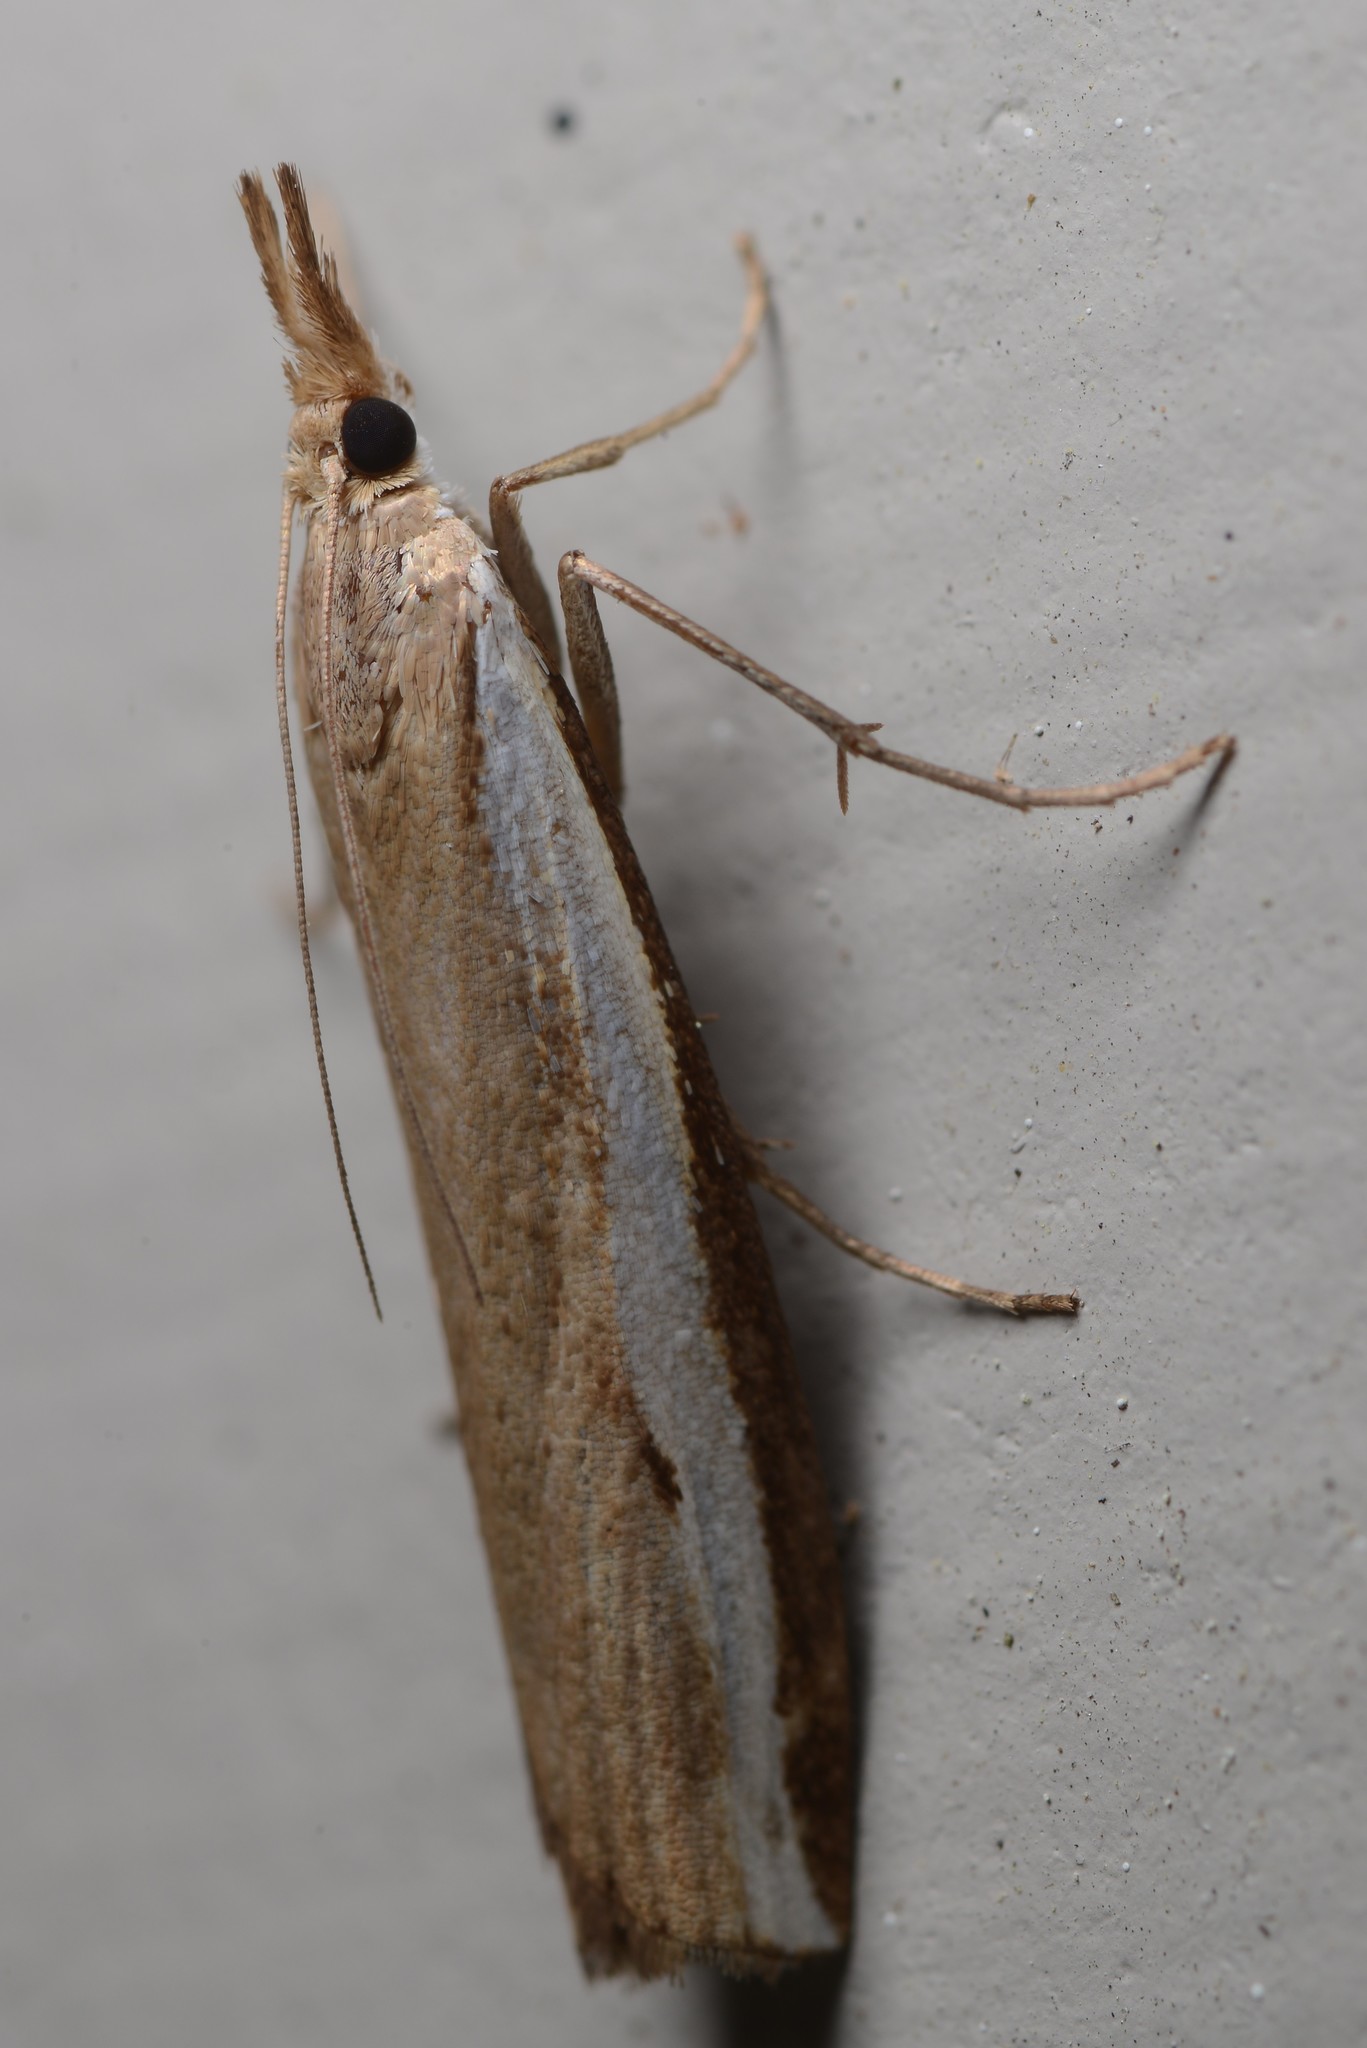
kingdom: Animalia
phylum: Arthropoda
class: Insecta
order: Lepidoptera
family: Crambidae
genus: Orocrambus
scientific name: Orocrambus flexuosellus
